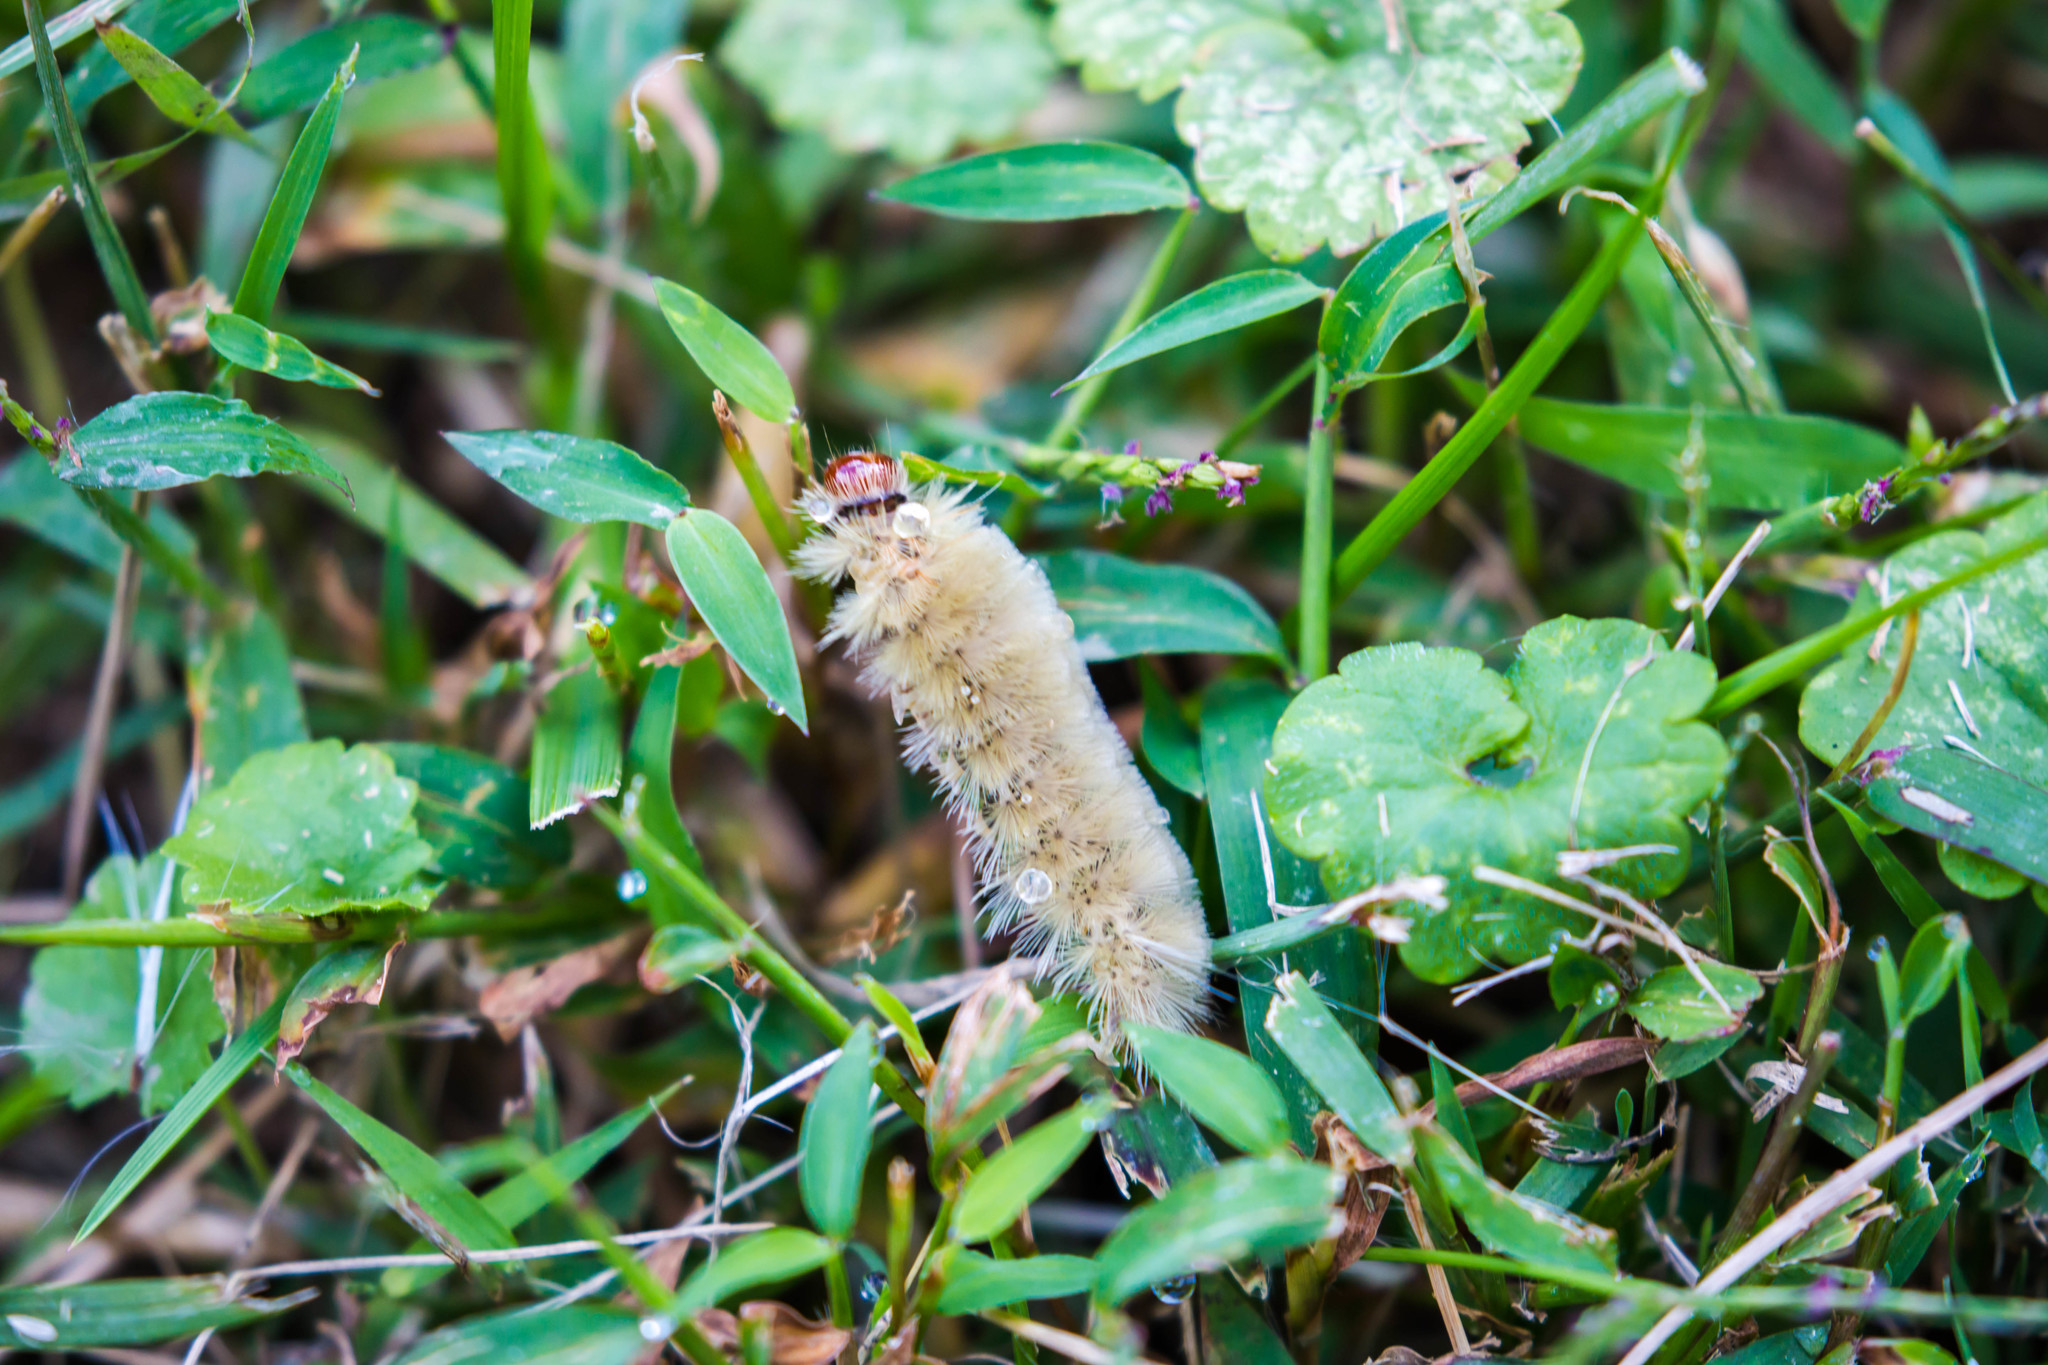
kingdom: Animalia
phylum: Arthropoda
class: Insecta
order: Lepidoptera
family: Erebidae
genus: Halysidota
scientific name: Halysidota harrisii
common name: Sycamore tussock moth
